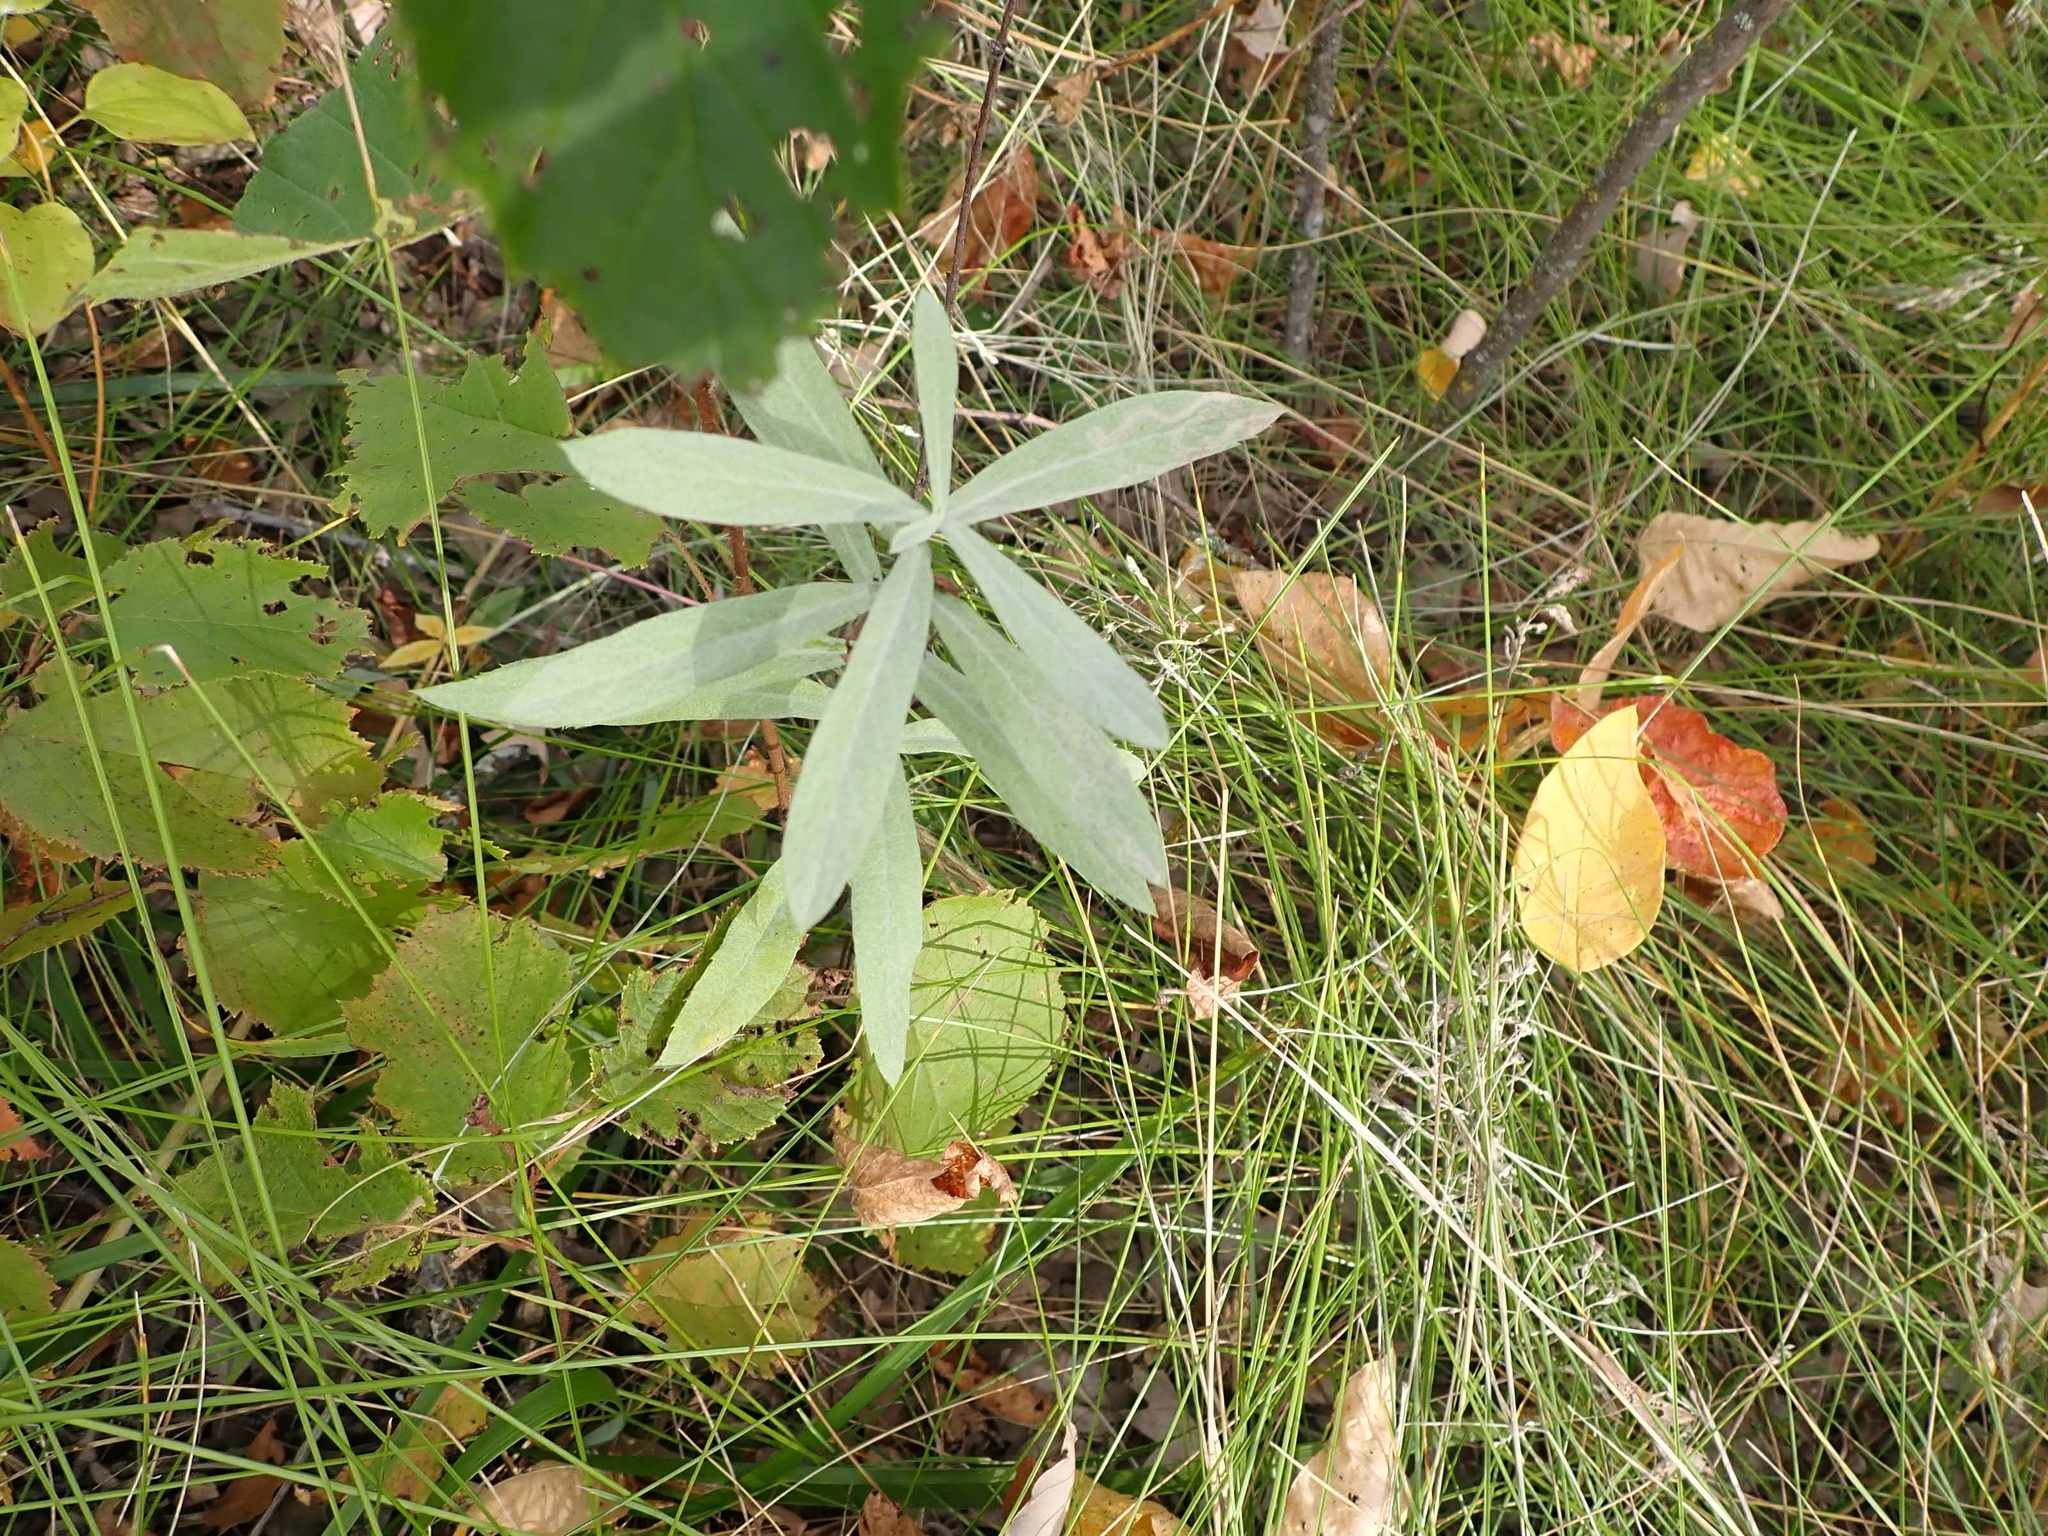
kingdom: Plantae
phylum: Tracheophyta
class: Magnoliopsida
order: Asterales
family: Asteraceae
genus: Artemisia
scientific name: Artemisia ludoviciana
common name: Western mugwort
